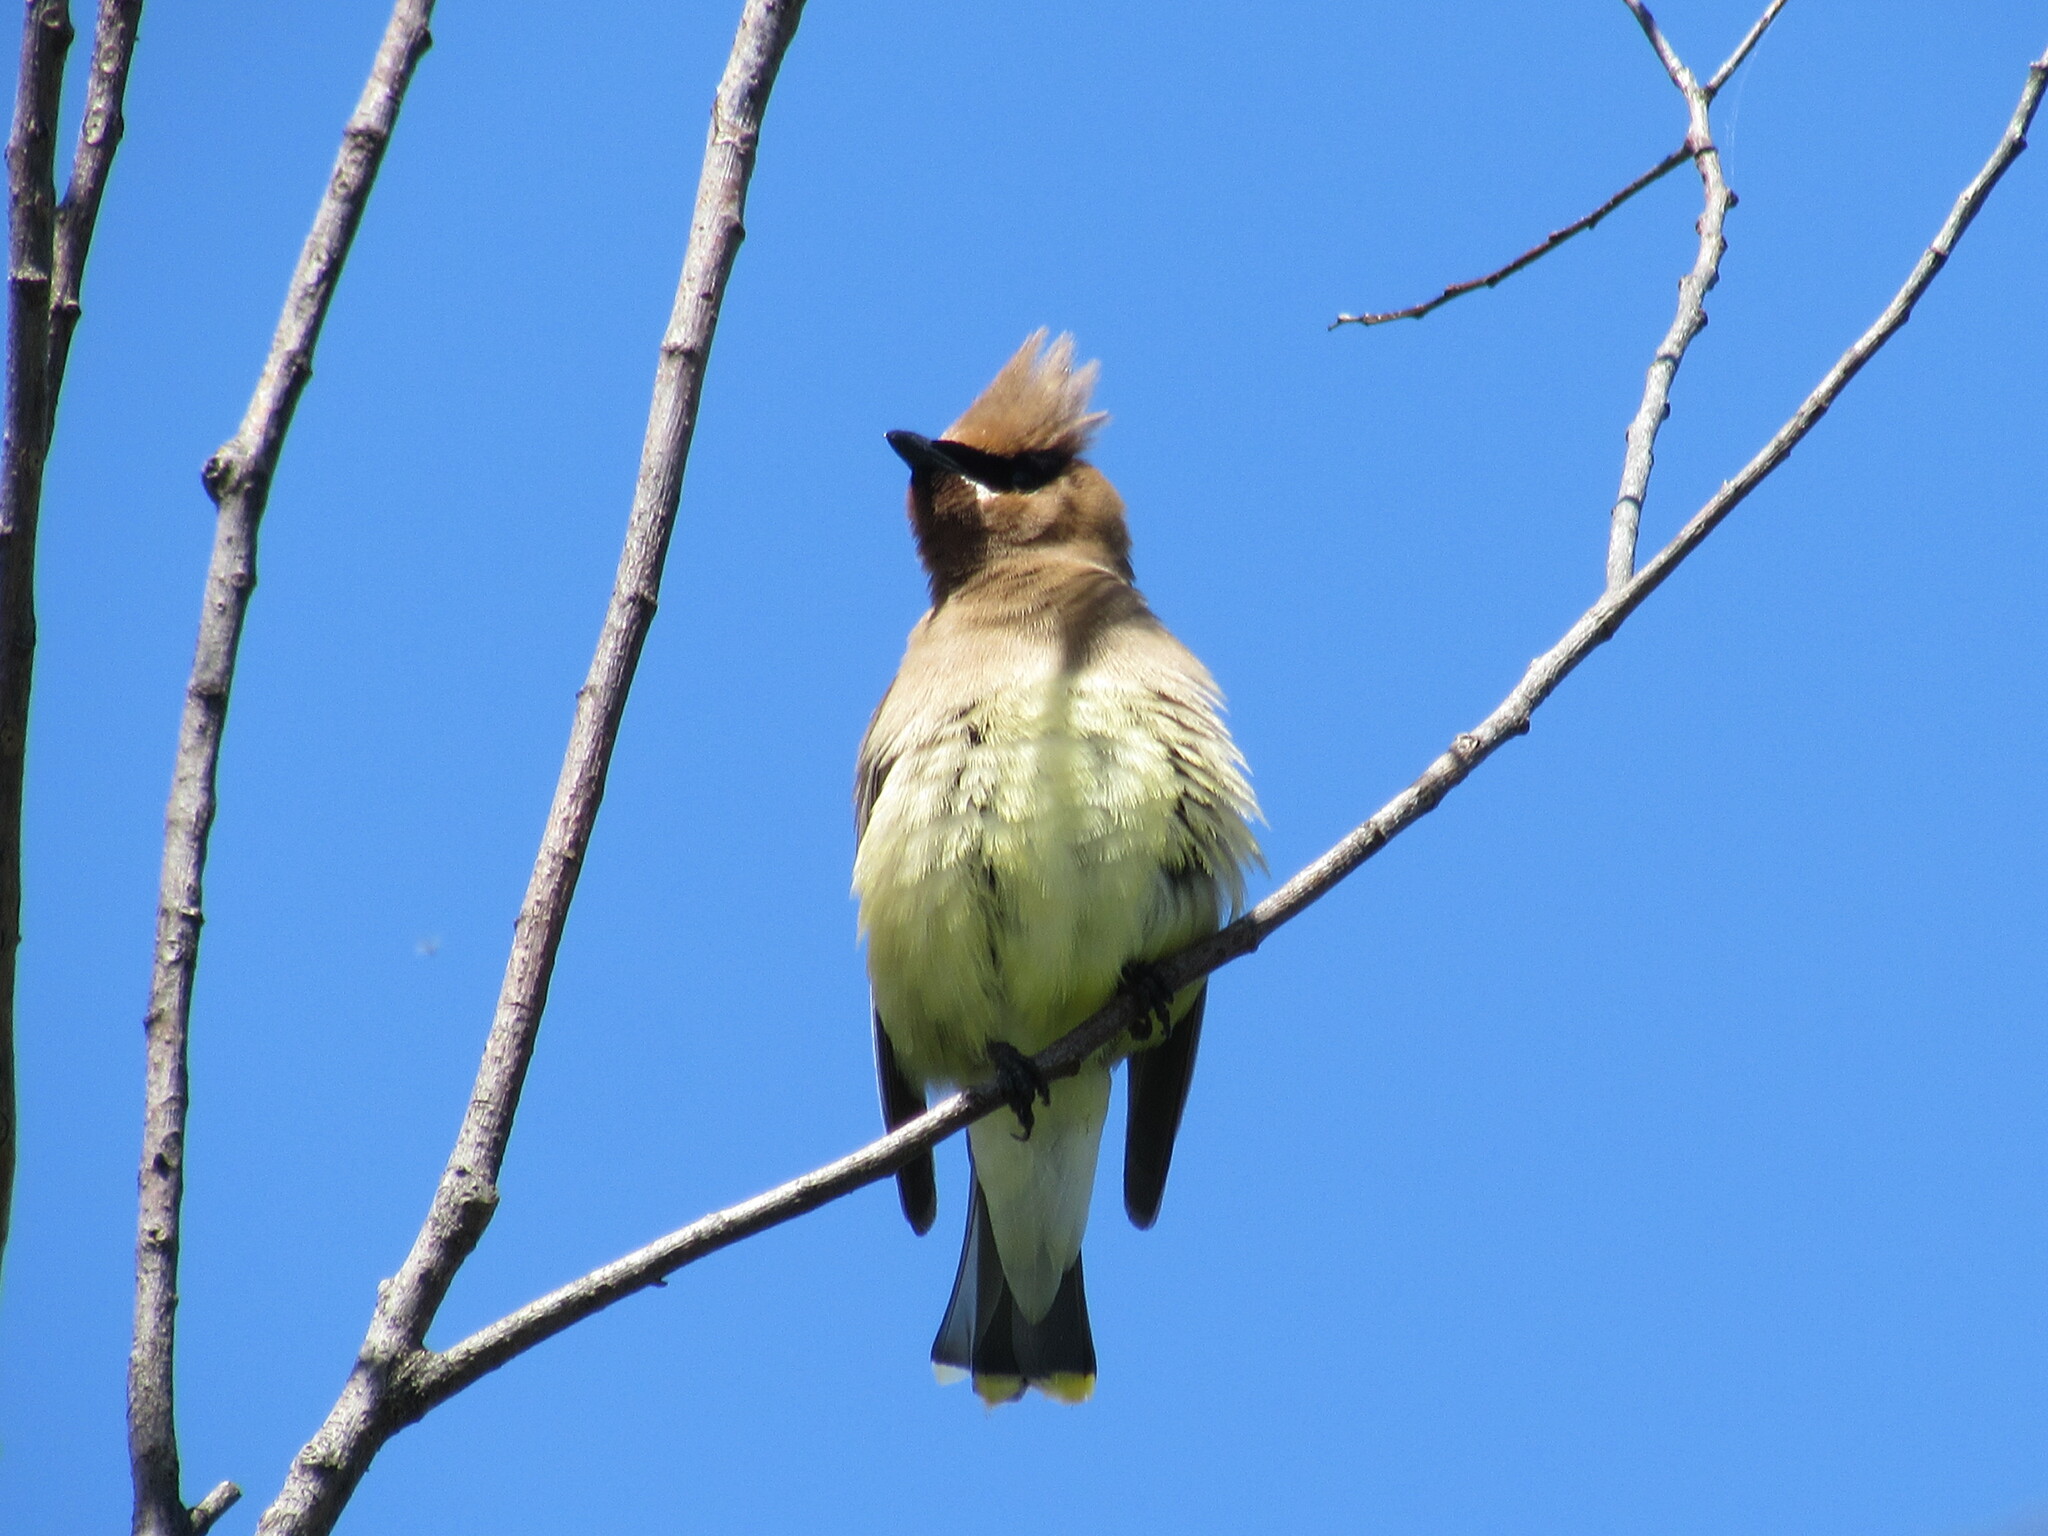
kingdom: Animalia
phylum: Chordata
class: Aves
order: Passeriformes
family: Bombycillidae
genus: Bombycilla
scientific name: Bombycilla cedrorum
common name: Cedar waxwing
